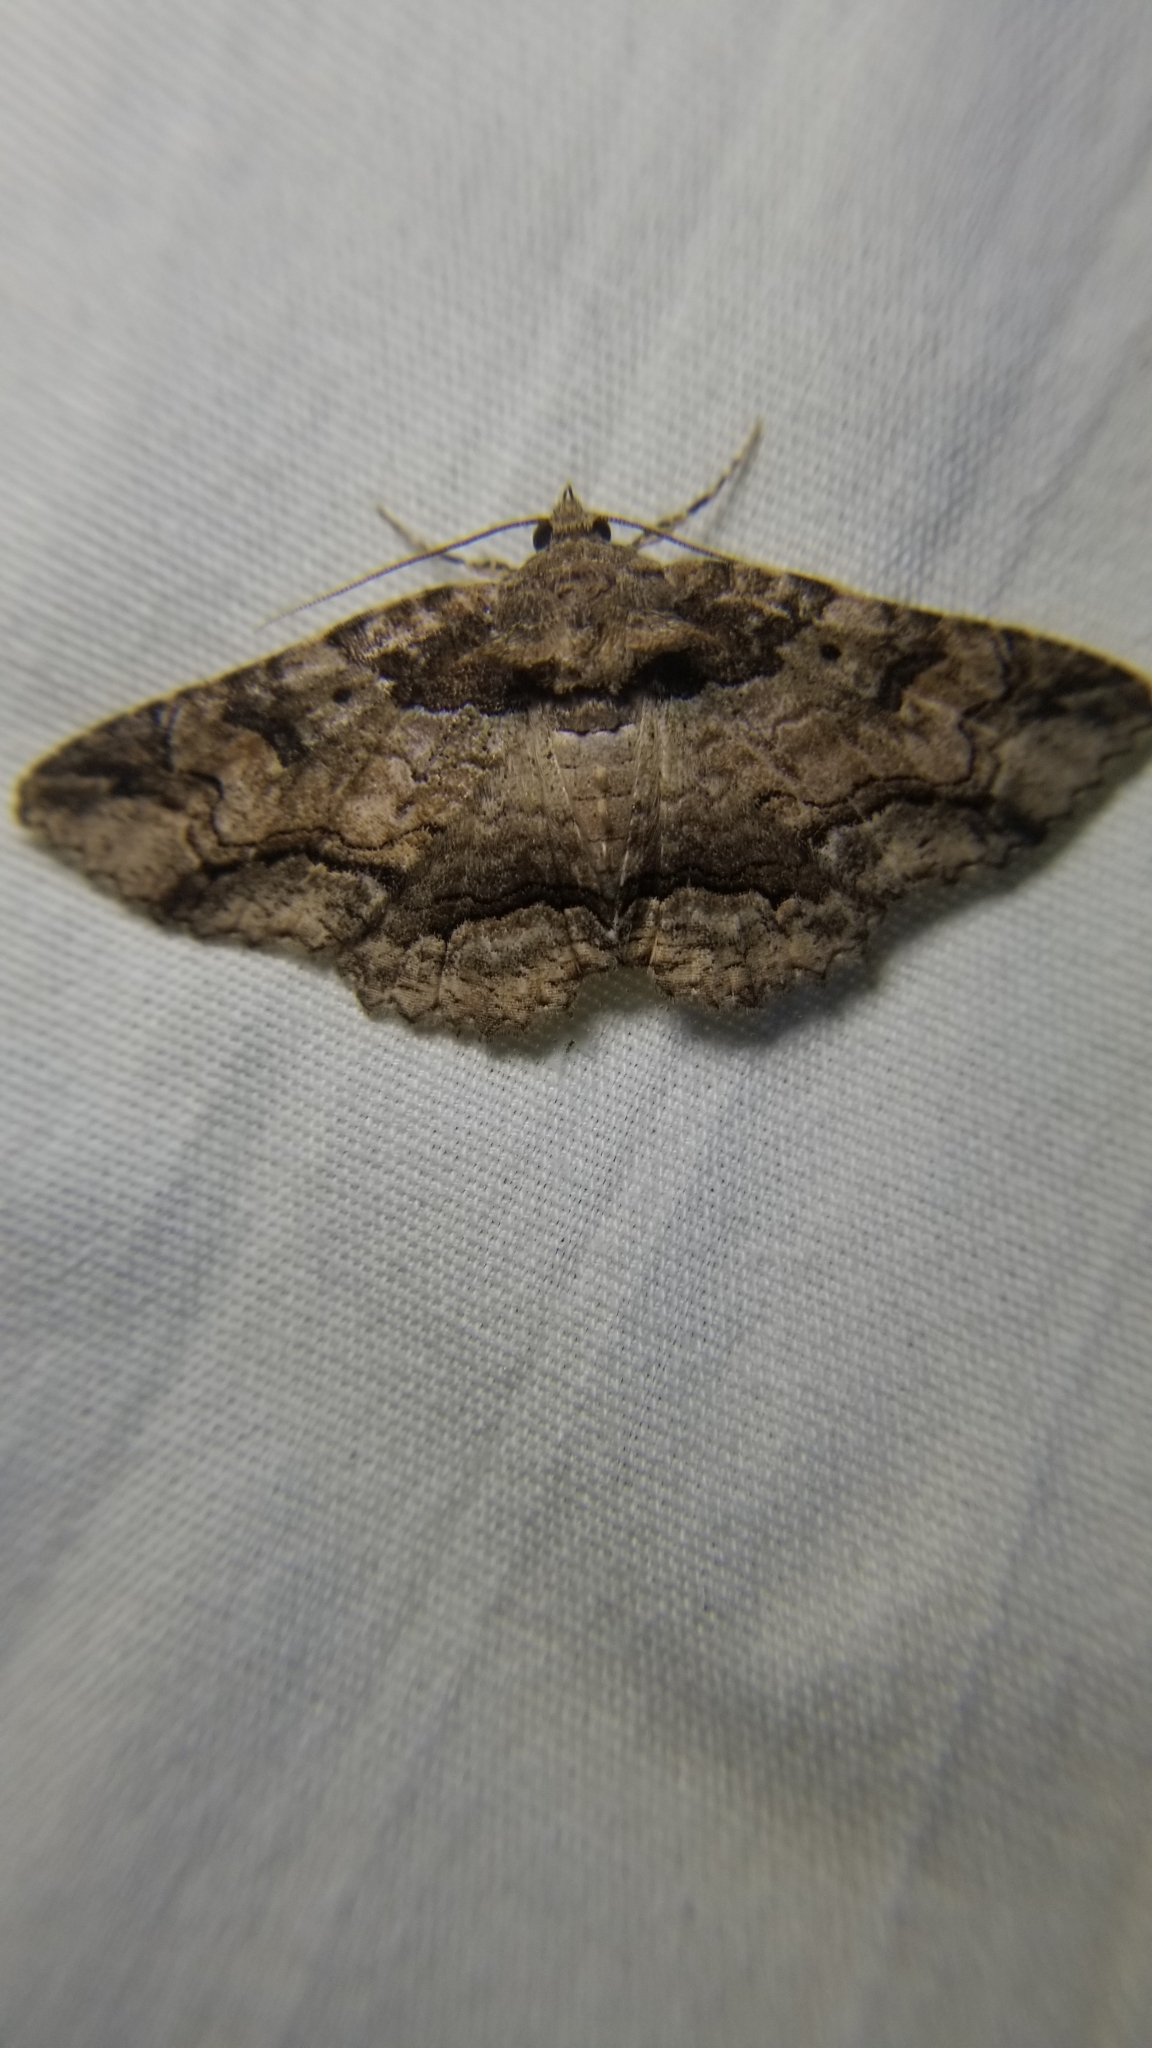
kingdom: Animalia
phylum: Arthropoda
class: Insecta
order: Lepidoptera
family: Erebidae
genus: Zale
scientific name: Zale lunata
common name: Lunate zale moth
